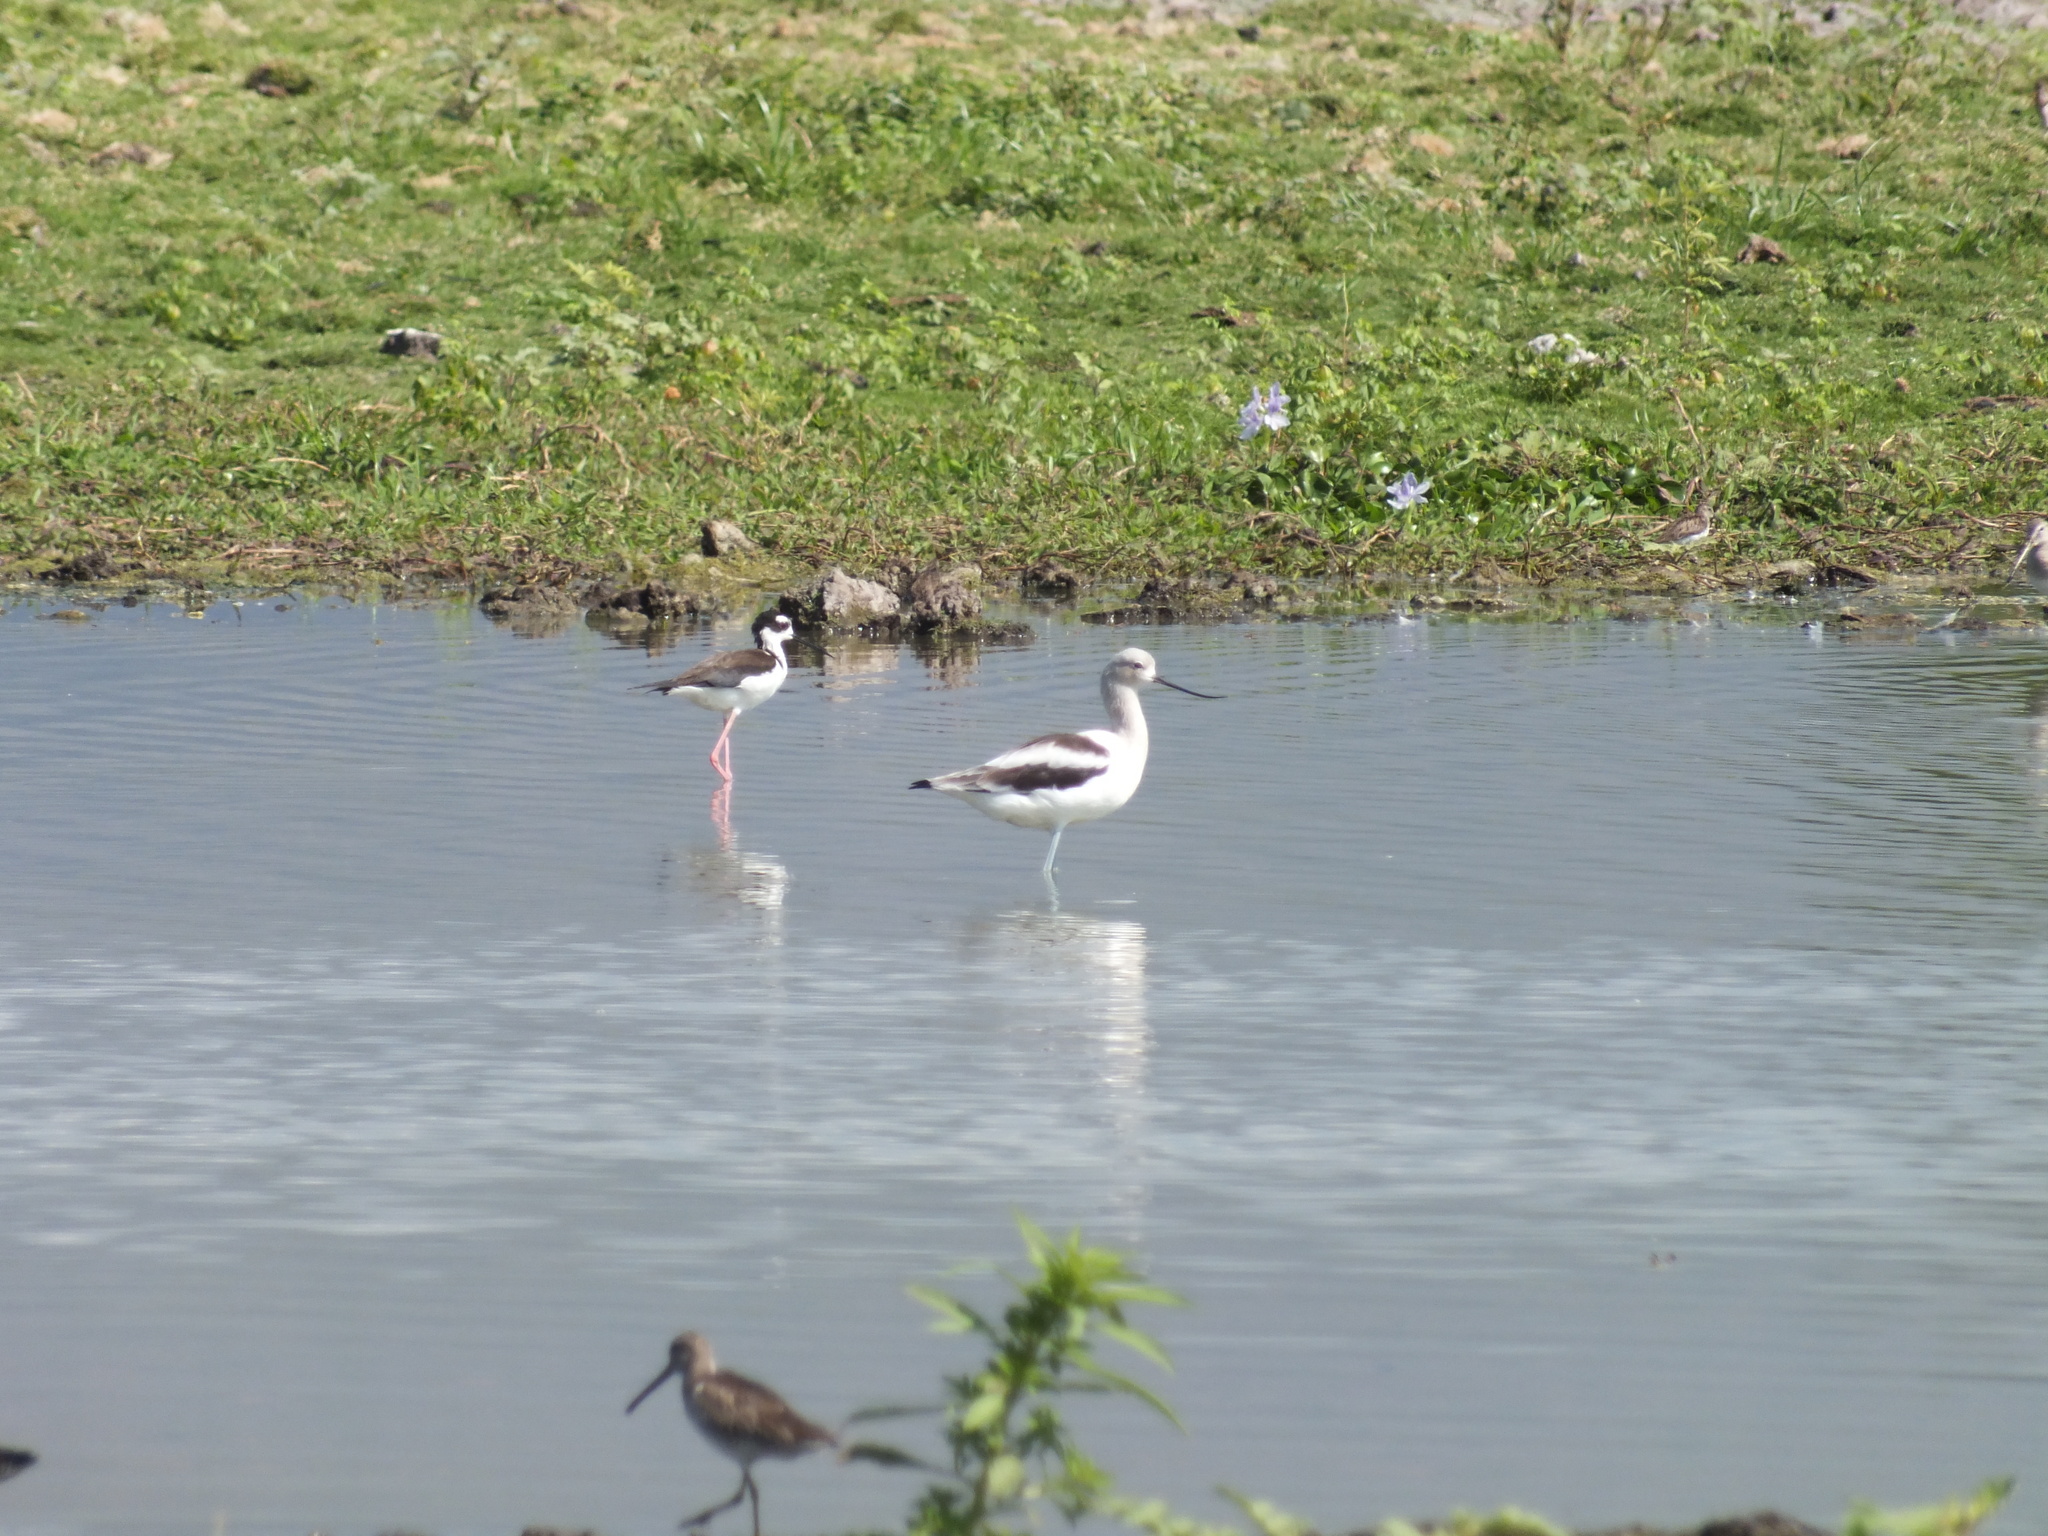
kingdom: Animalia
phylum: Chordata
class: Aves
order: Charadriiformes
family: Recurvirostridae
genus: Recurvirostra
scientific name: Recurvirostra americana
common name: American avocet
